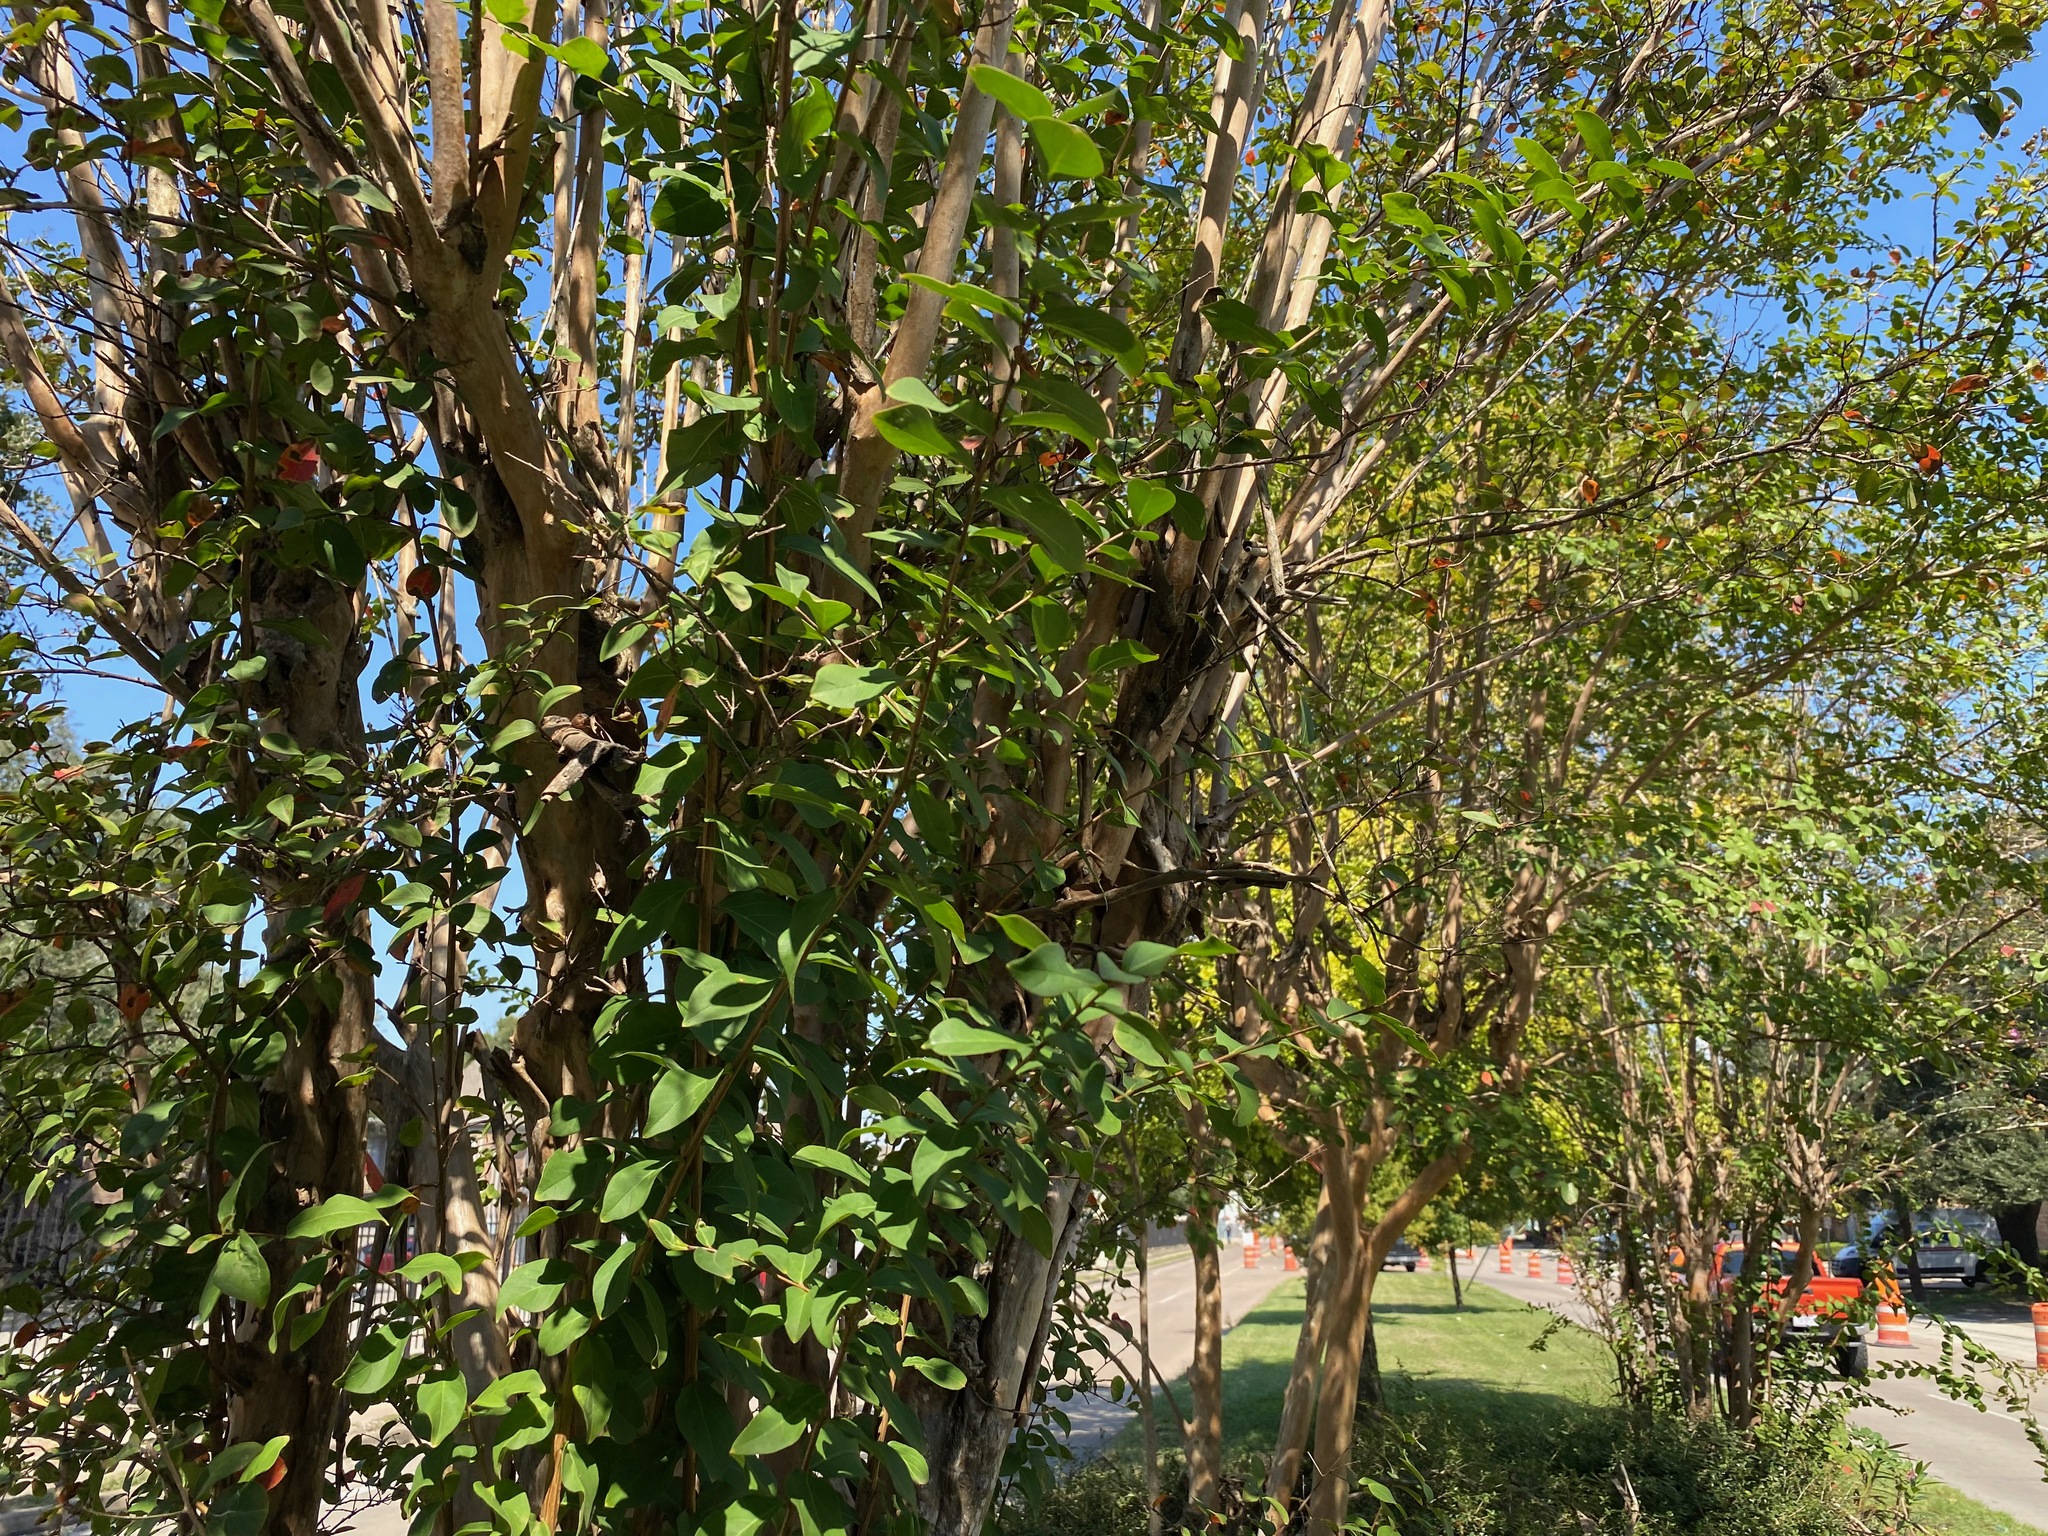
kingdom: Plantae
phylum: Tracheophyta
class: Magnoliopsida
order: Lamiales
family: Oleaceae
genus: Ligustrum
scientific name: Ligustrum lucidum
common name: Glossy privet
